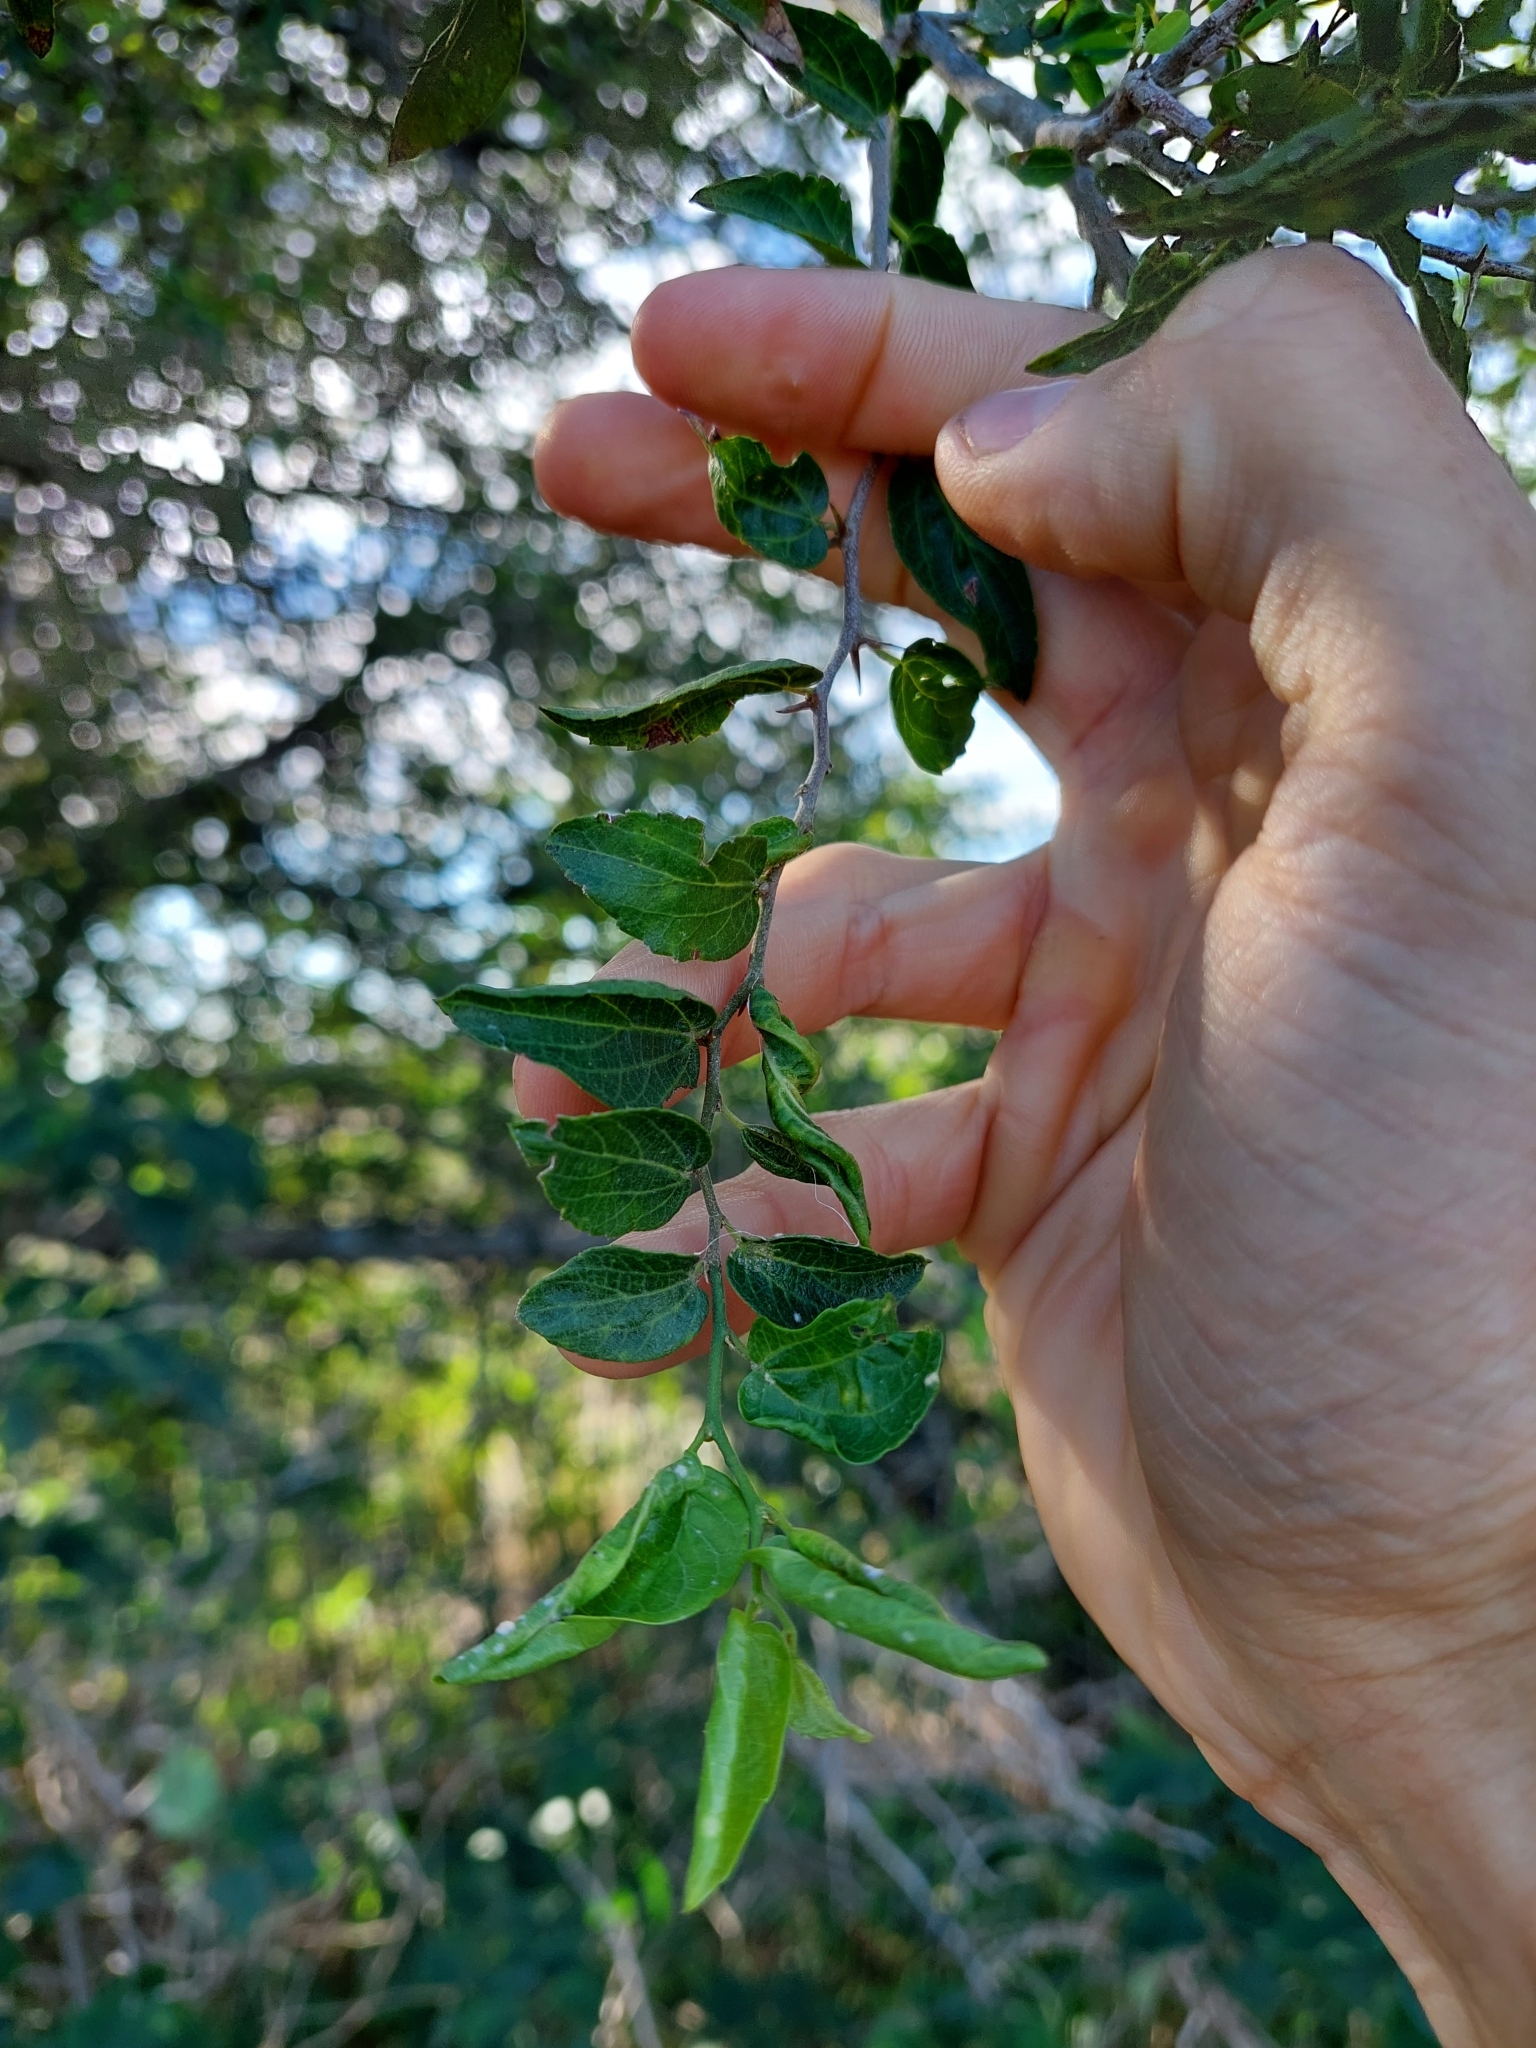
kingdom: Plantae
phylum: Tracheophyta
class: Magnoliopsida
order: Rosales
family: Cannabaceae
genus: Celtis
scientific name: Celtis tala
